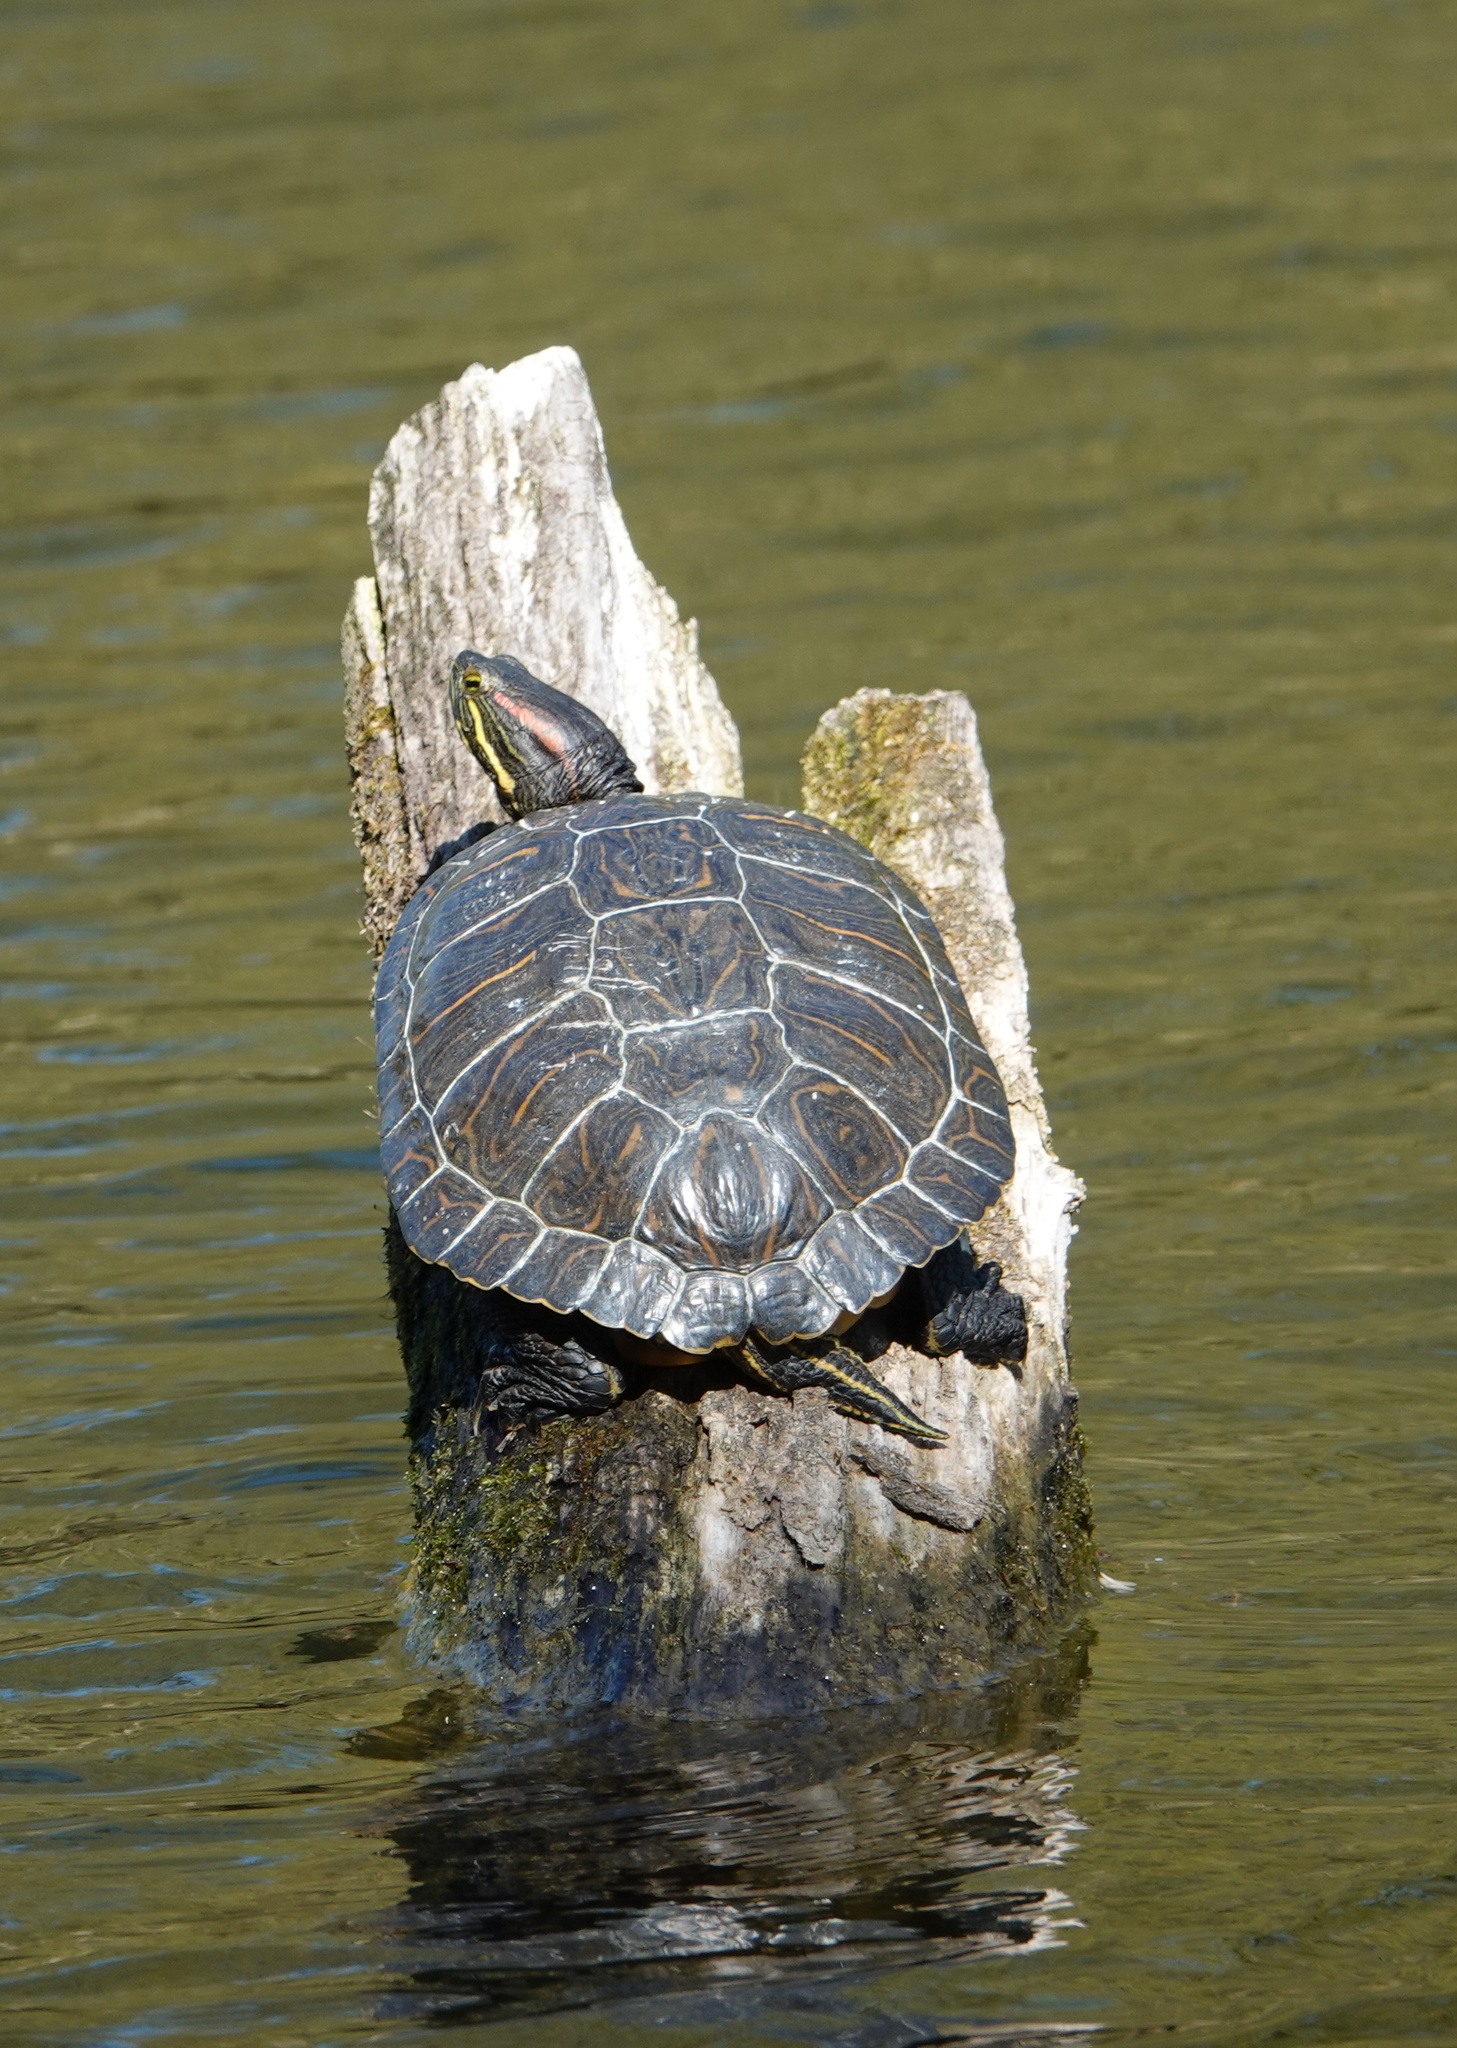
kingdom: Animalia
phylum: Chordata
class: Testudines
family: Emydidae
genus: Trachemys
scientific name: Trachemys scripta
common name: Slider
